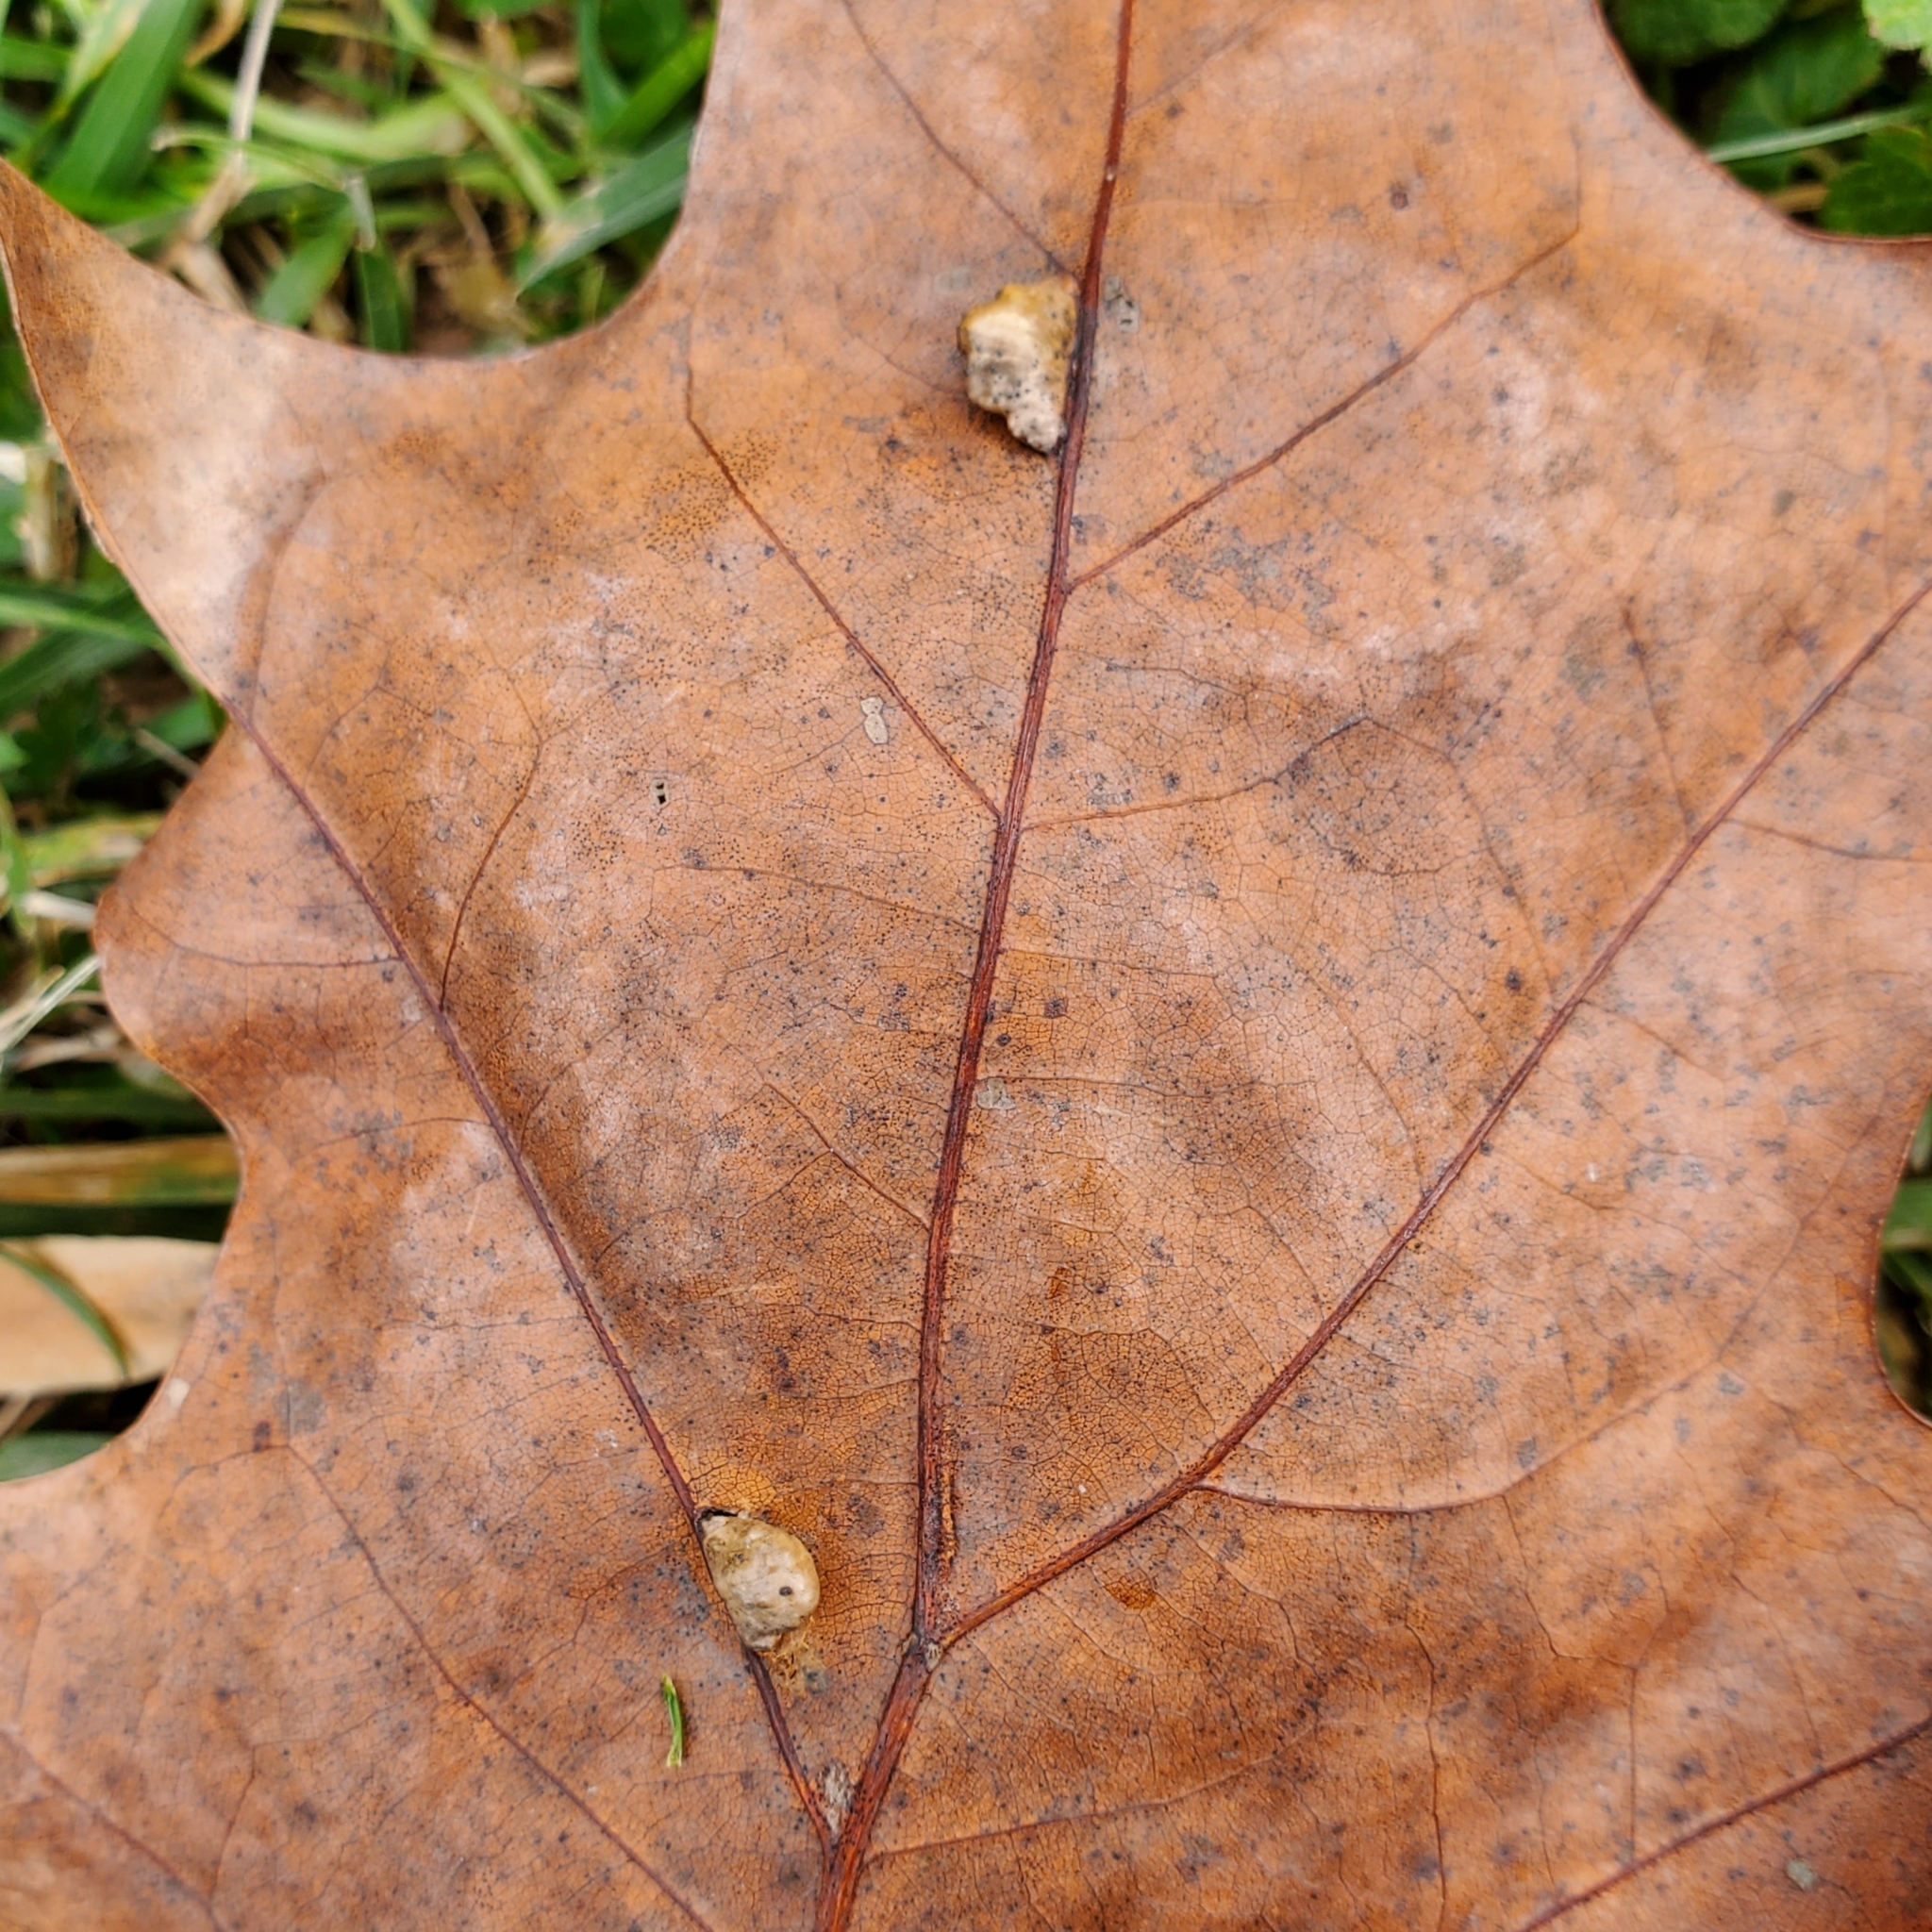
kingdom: Animalia
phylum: Arthropoda
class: Insecta
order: Diptera
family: Cecidomyiidae
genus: Macrodiplosis
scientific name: Macrodiplosis majalis
